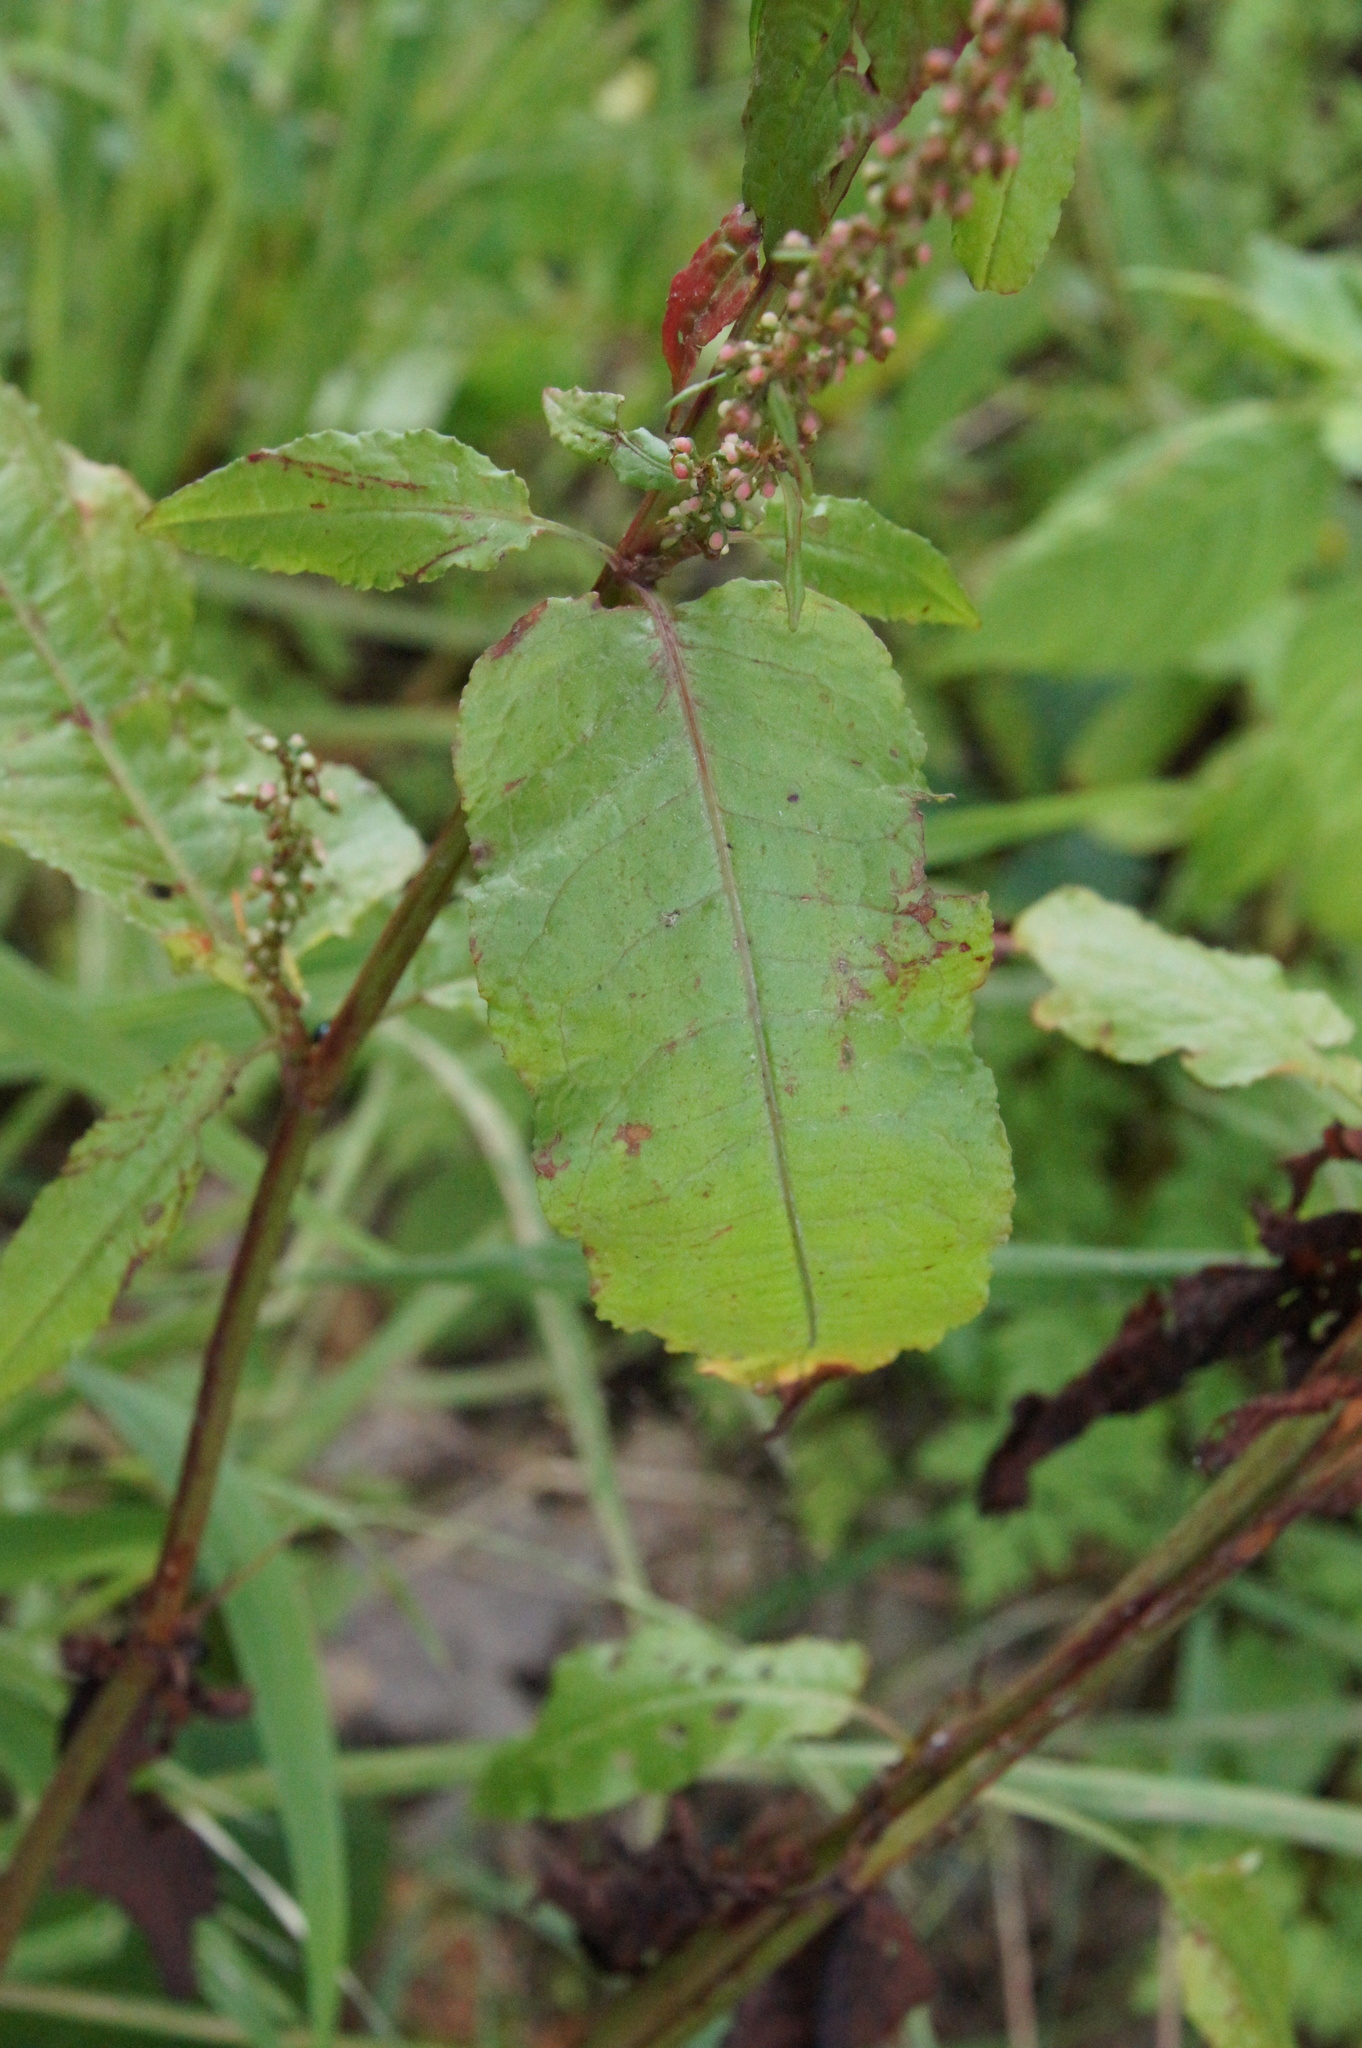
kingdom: Plantae
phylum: Tracheophyta
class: Magnoliopsida
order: Caryophyllales
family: Polygonaceae
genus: Rumex
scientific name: Rumex sanguineus
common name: Wood dock
